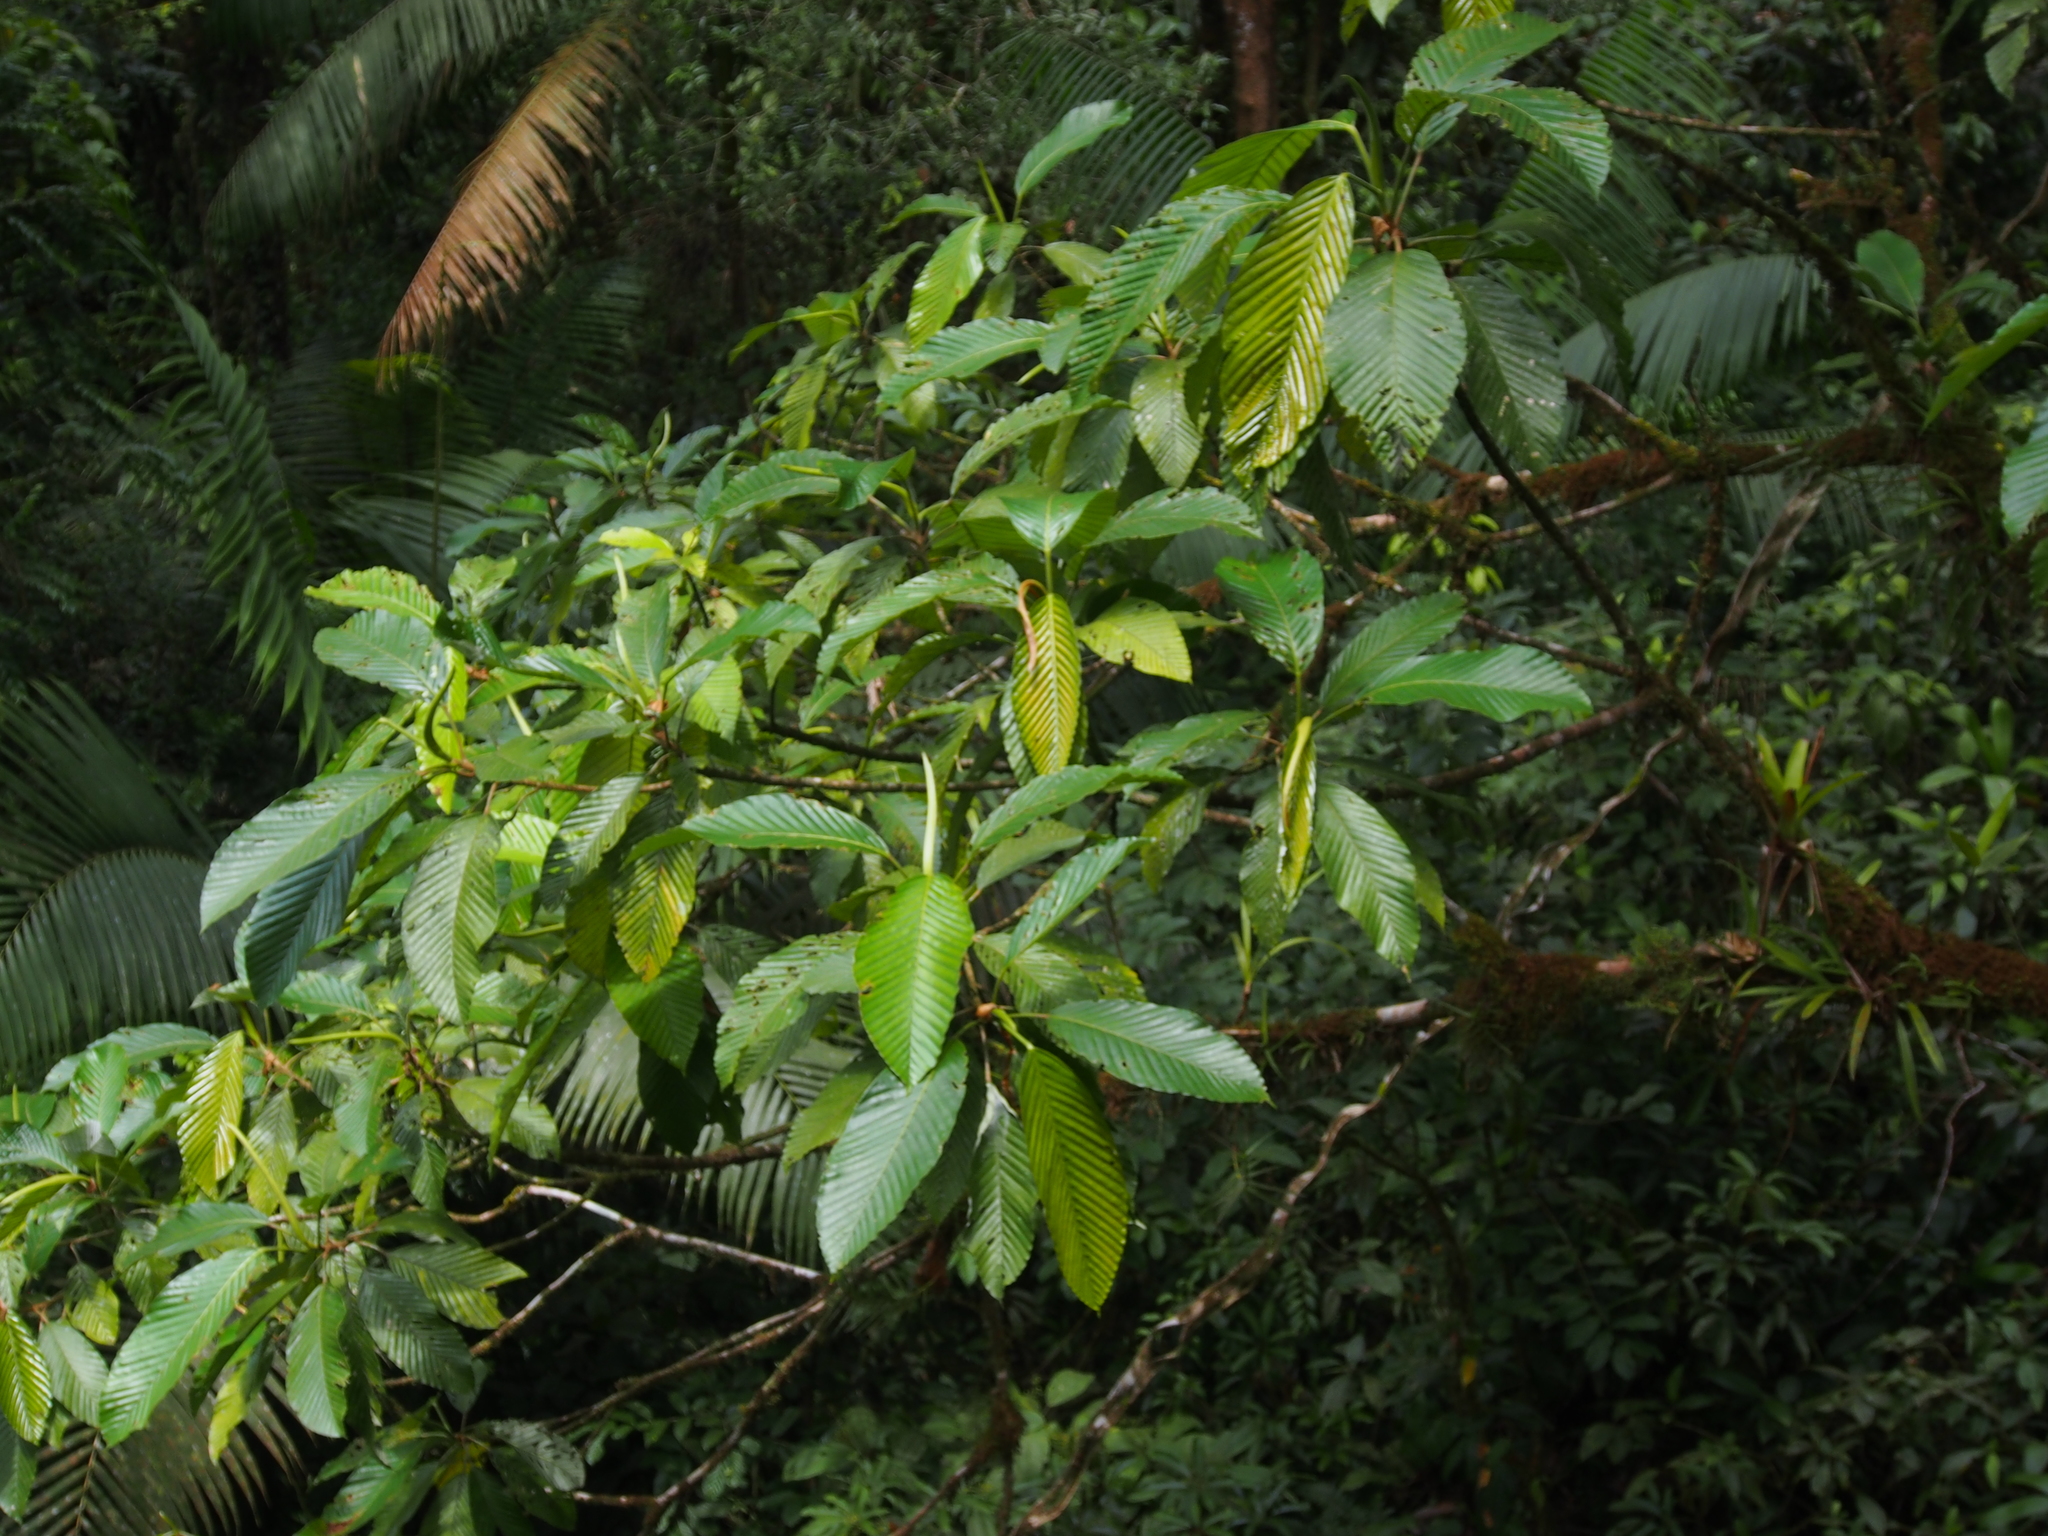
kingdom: Plantae
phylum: Tracheophyta
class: Magnoliopsida
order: Rosales
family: Urticaceae
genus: Pourouma
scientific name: Pourouma minor
